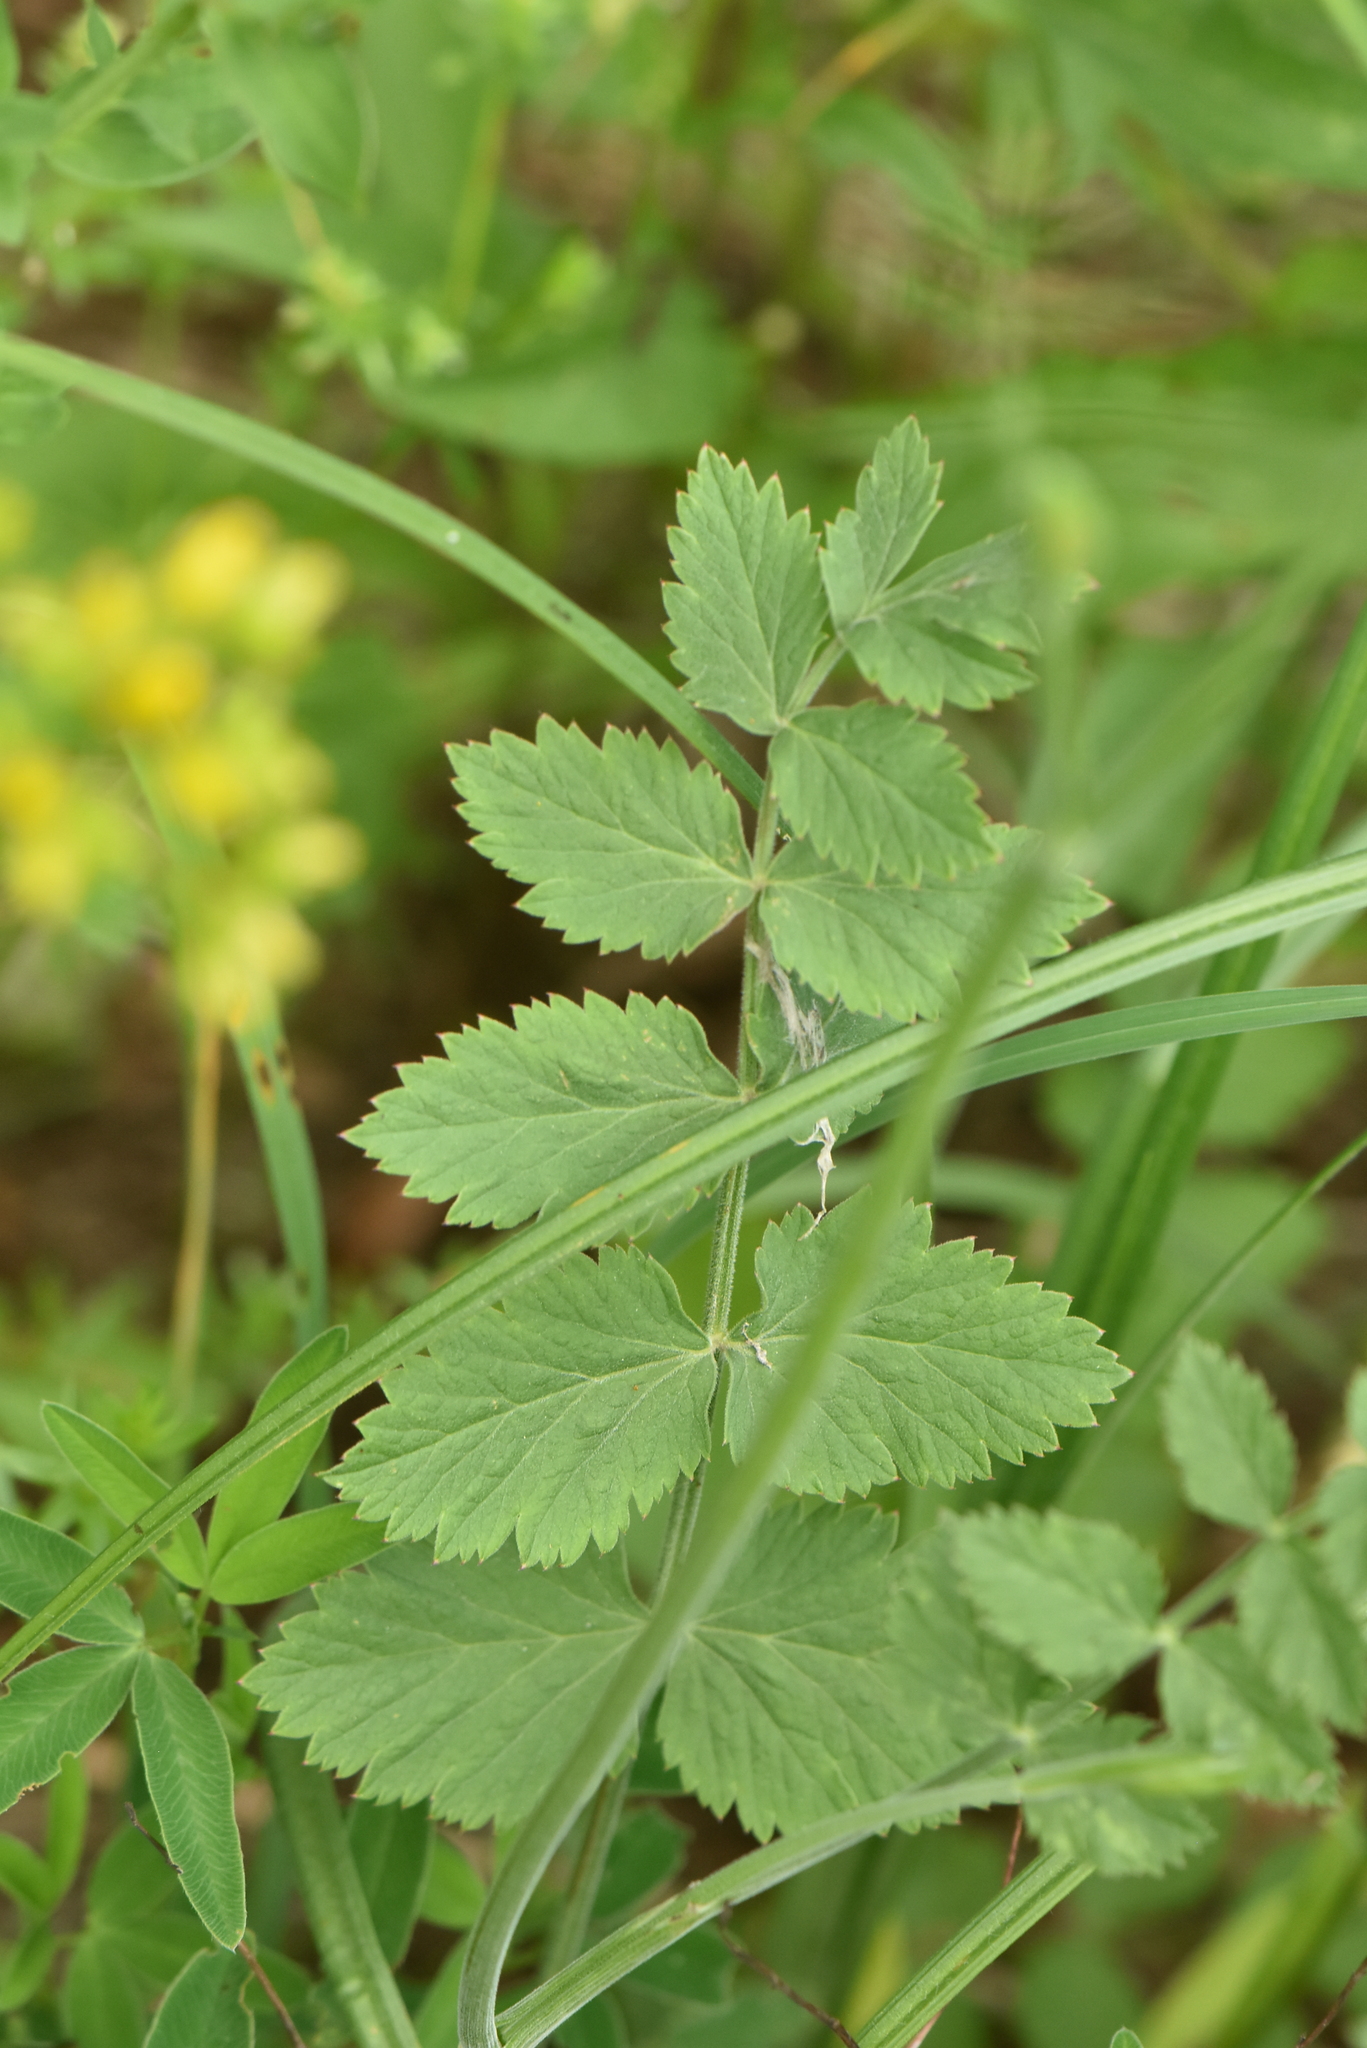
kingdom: Plantae
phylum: Tracheophyta
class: Magnoliopsida
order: Apiales
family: Apiaceae
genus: Pimpinella
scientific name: Pimpinella saxifraga
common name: Burnet-saxifrage
